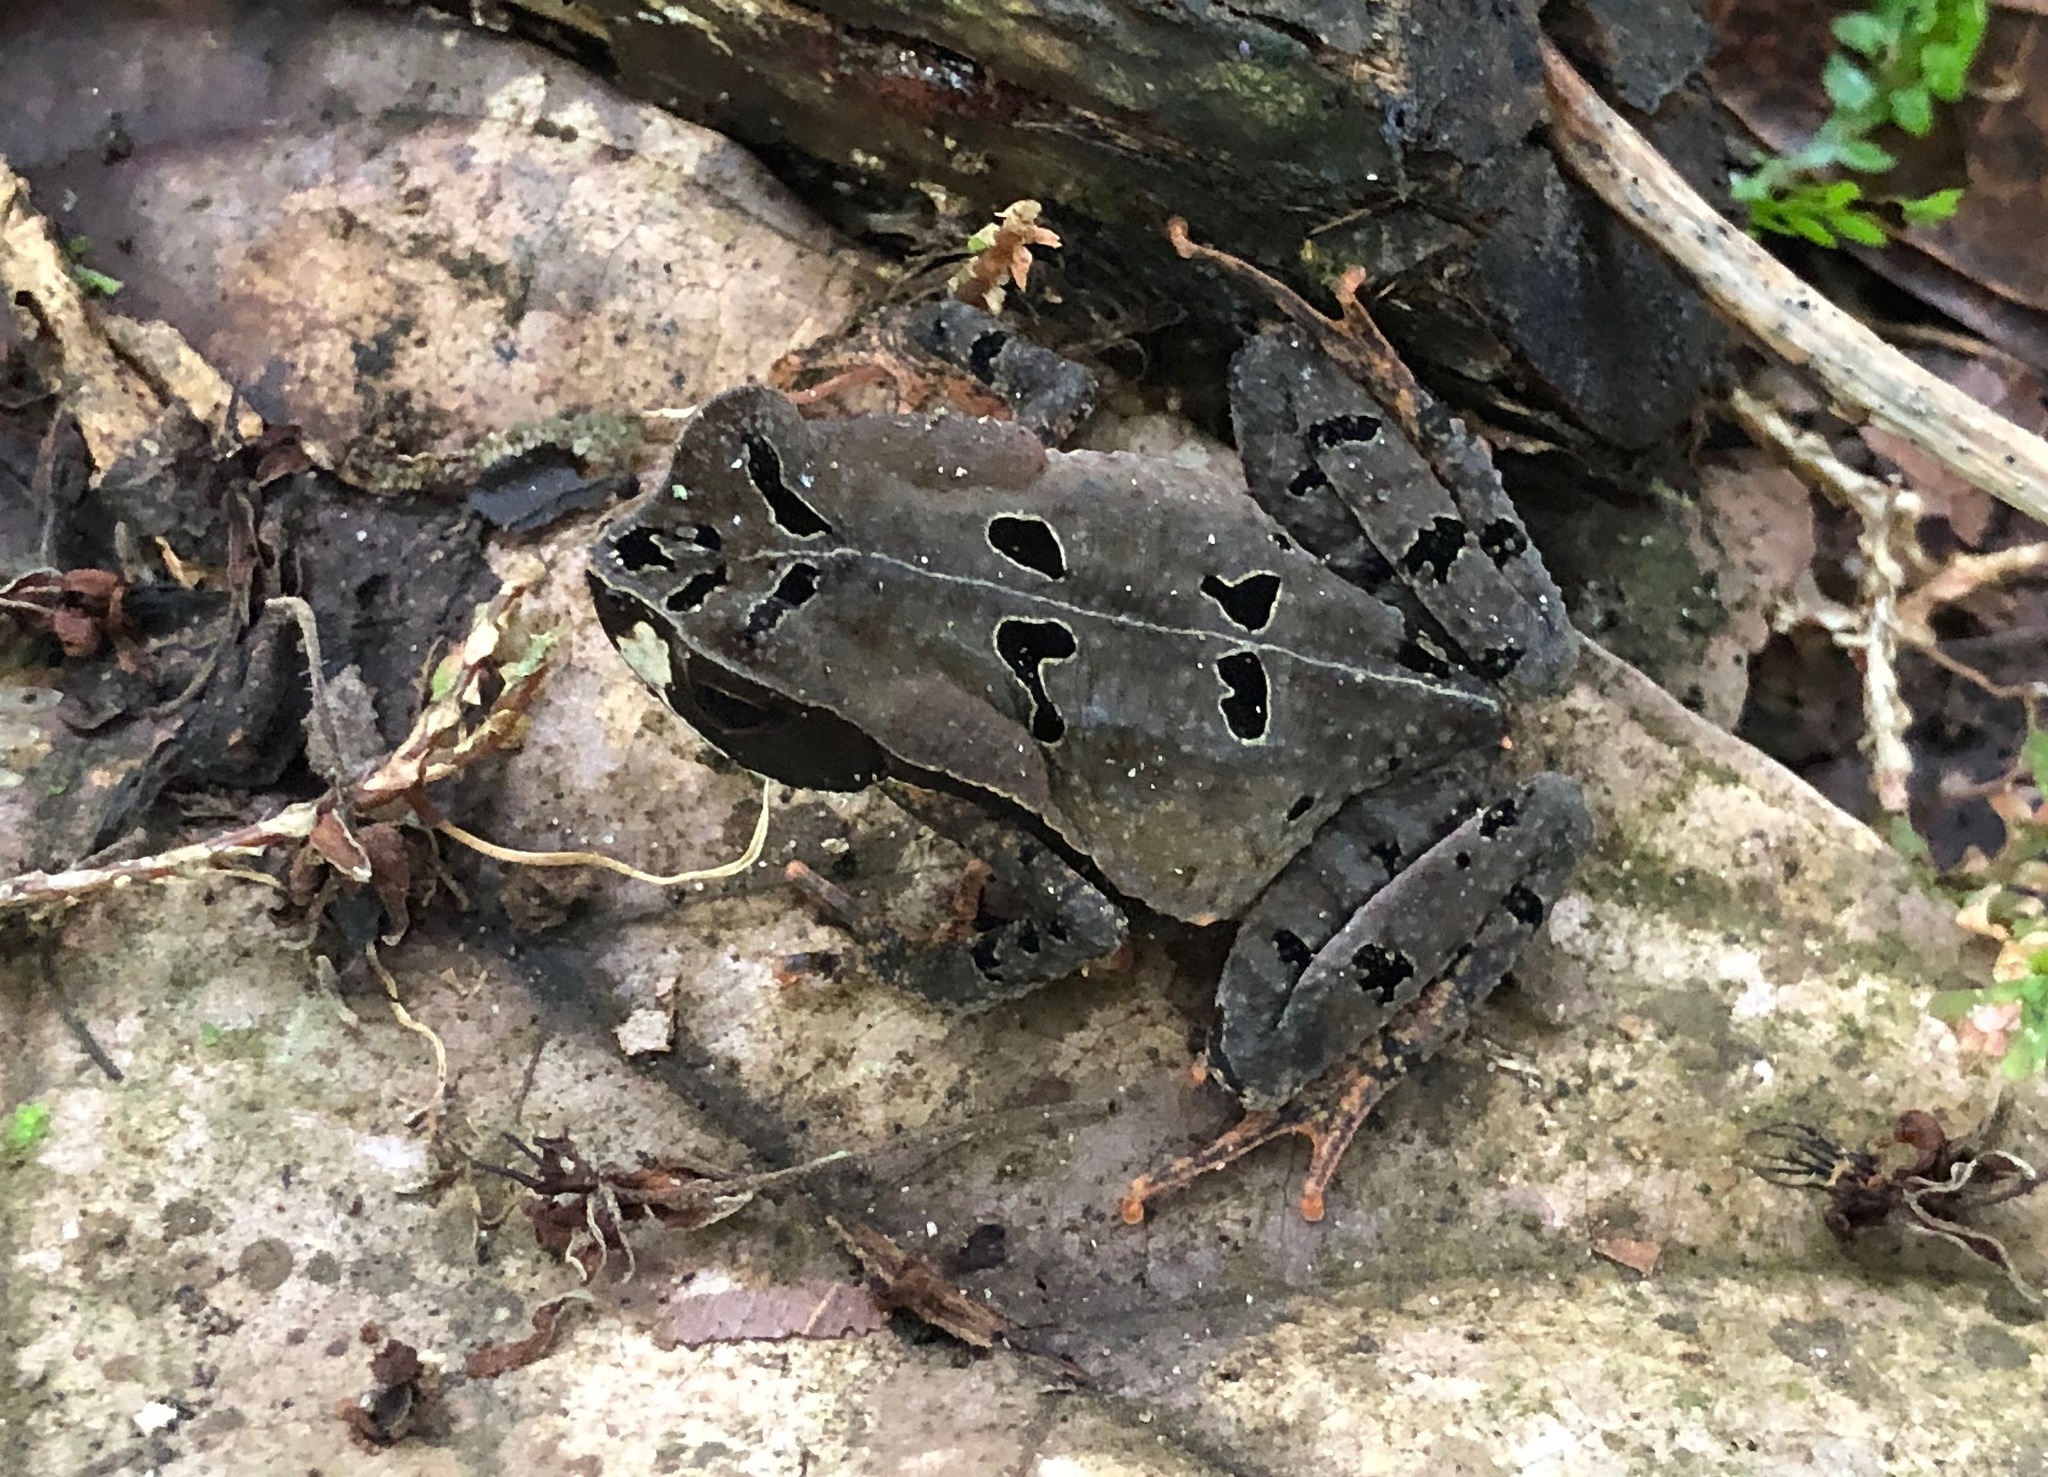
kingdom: Animalia
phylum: Chordata
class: Amphibia
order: Anura
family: Bufonidae
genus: Rhaebo
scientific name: Rhaebo haematiticus
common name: Truando toad
